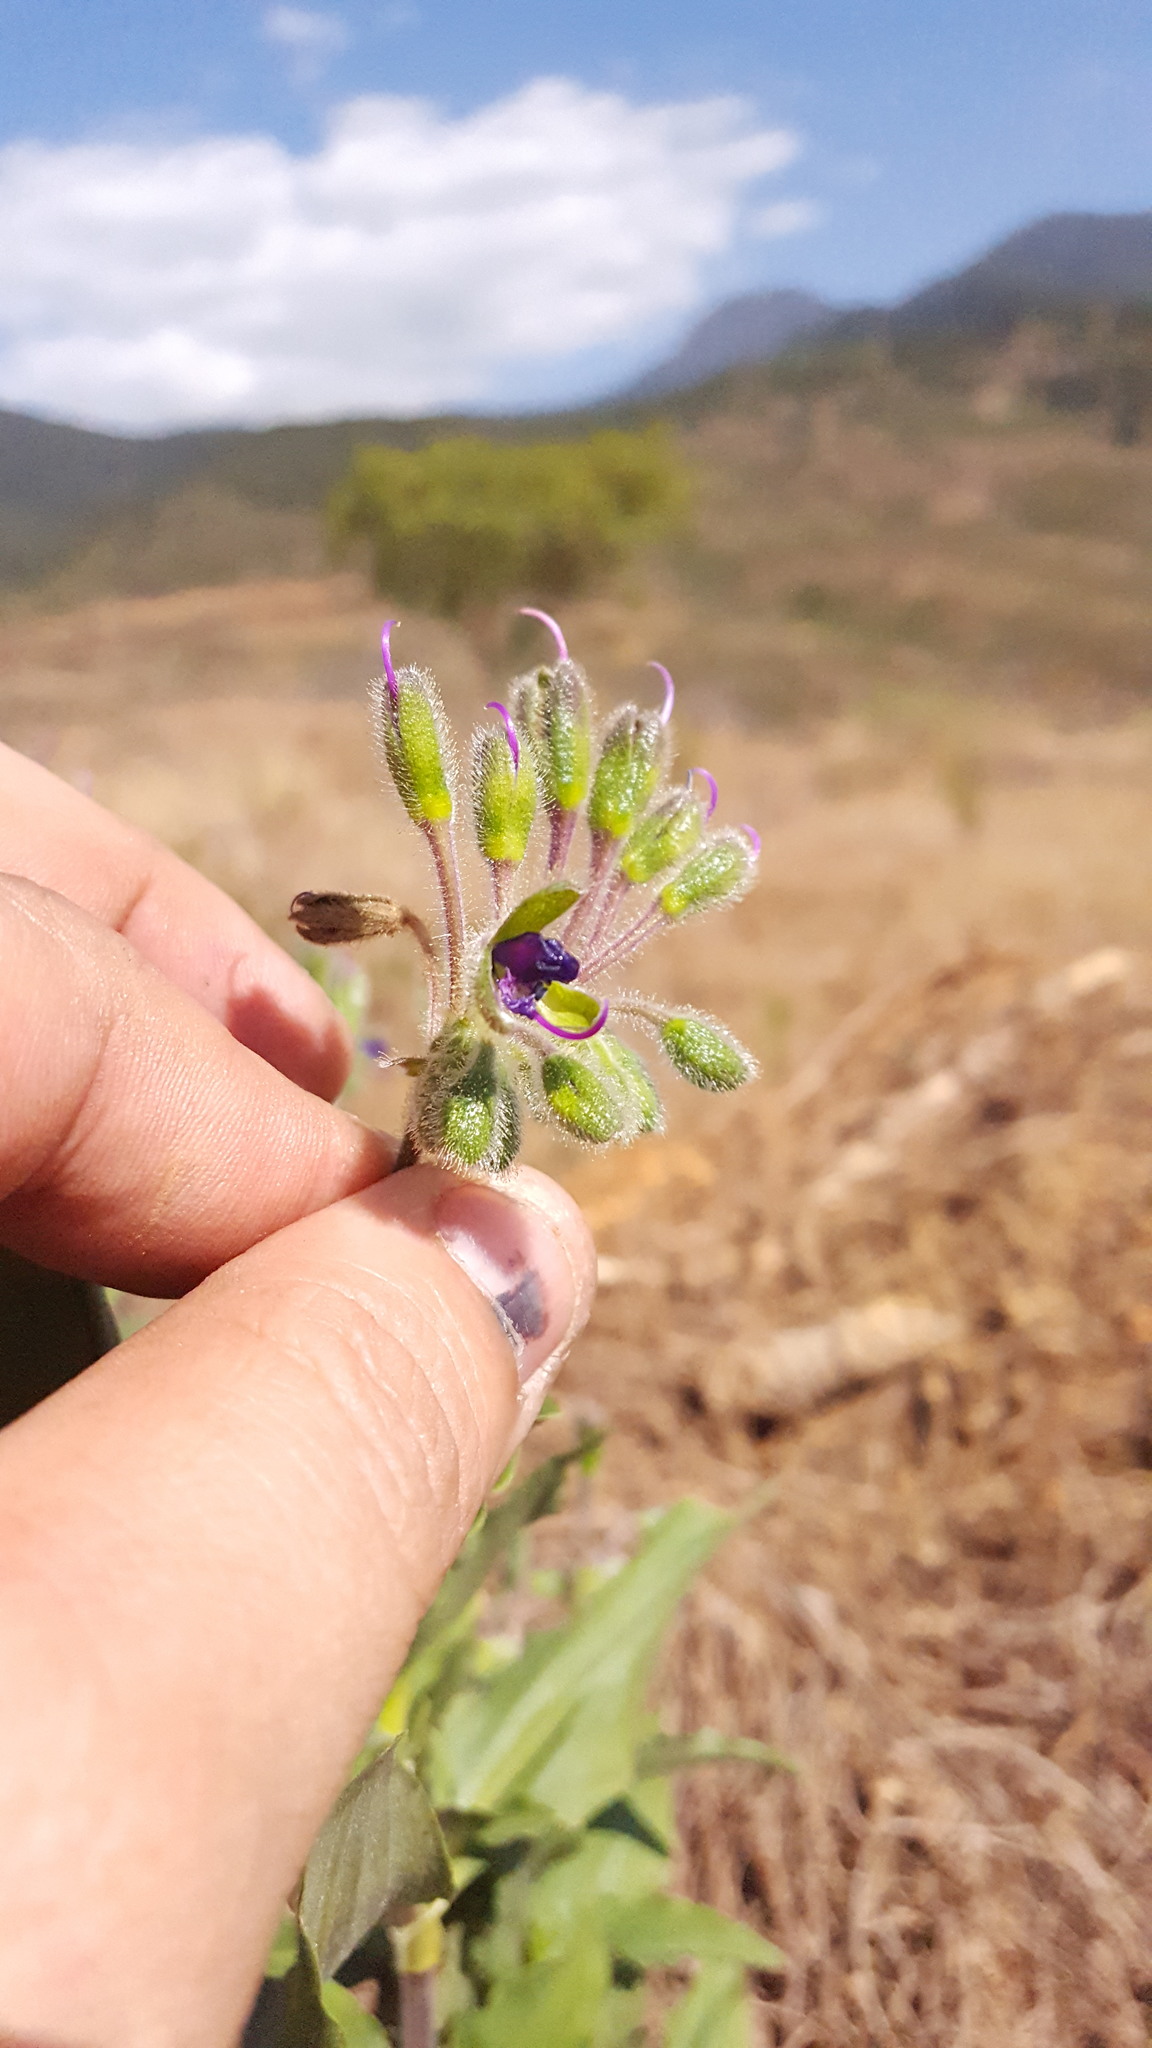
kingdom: Plantae
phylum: Tracheophyta
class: Liliopsida
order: Commelinales
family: Commelinaceae
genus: Tinantia
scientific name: Tinantia erecta
